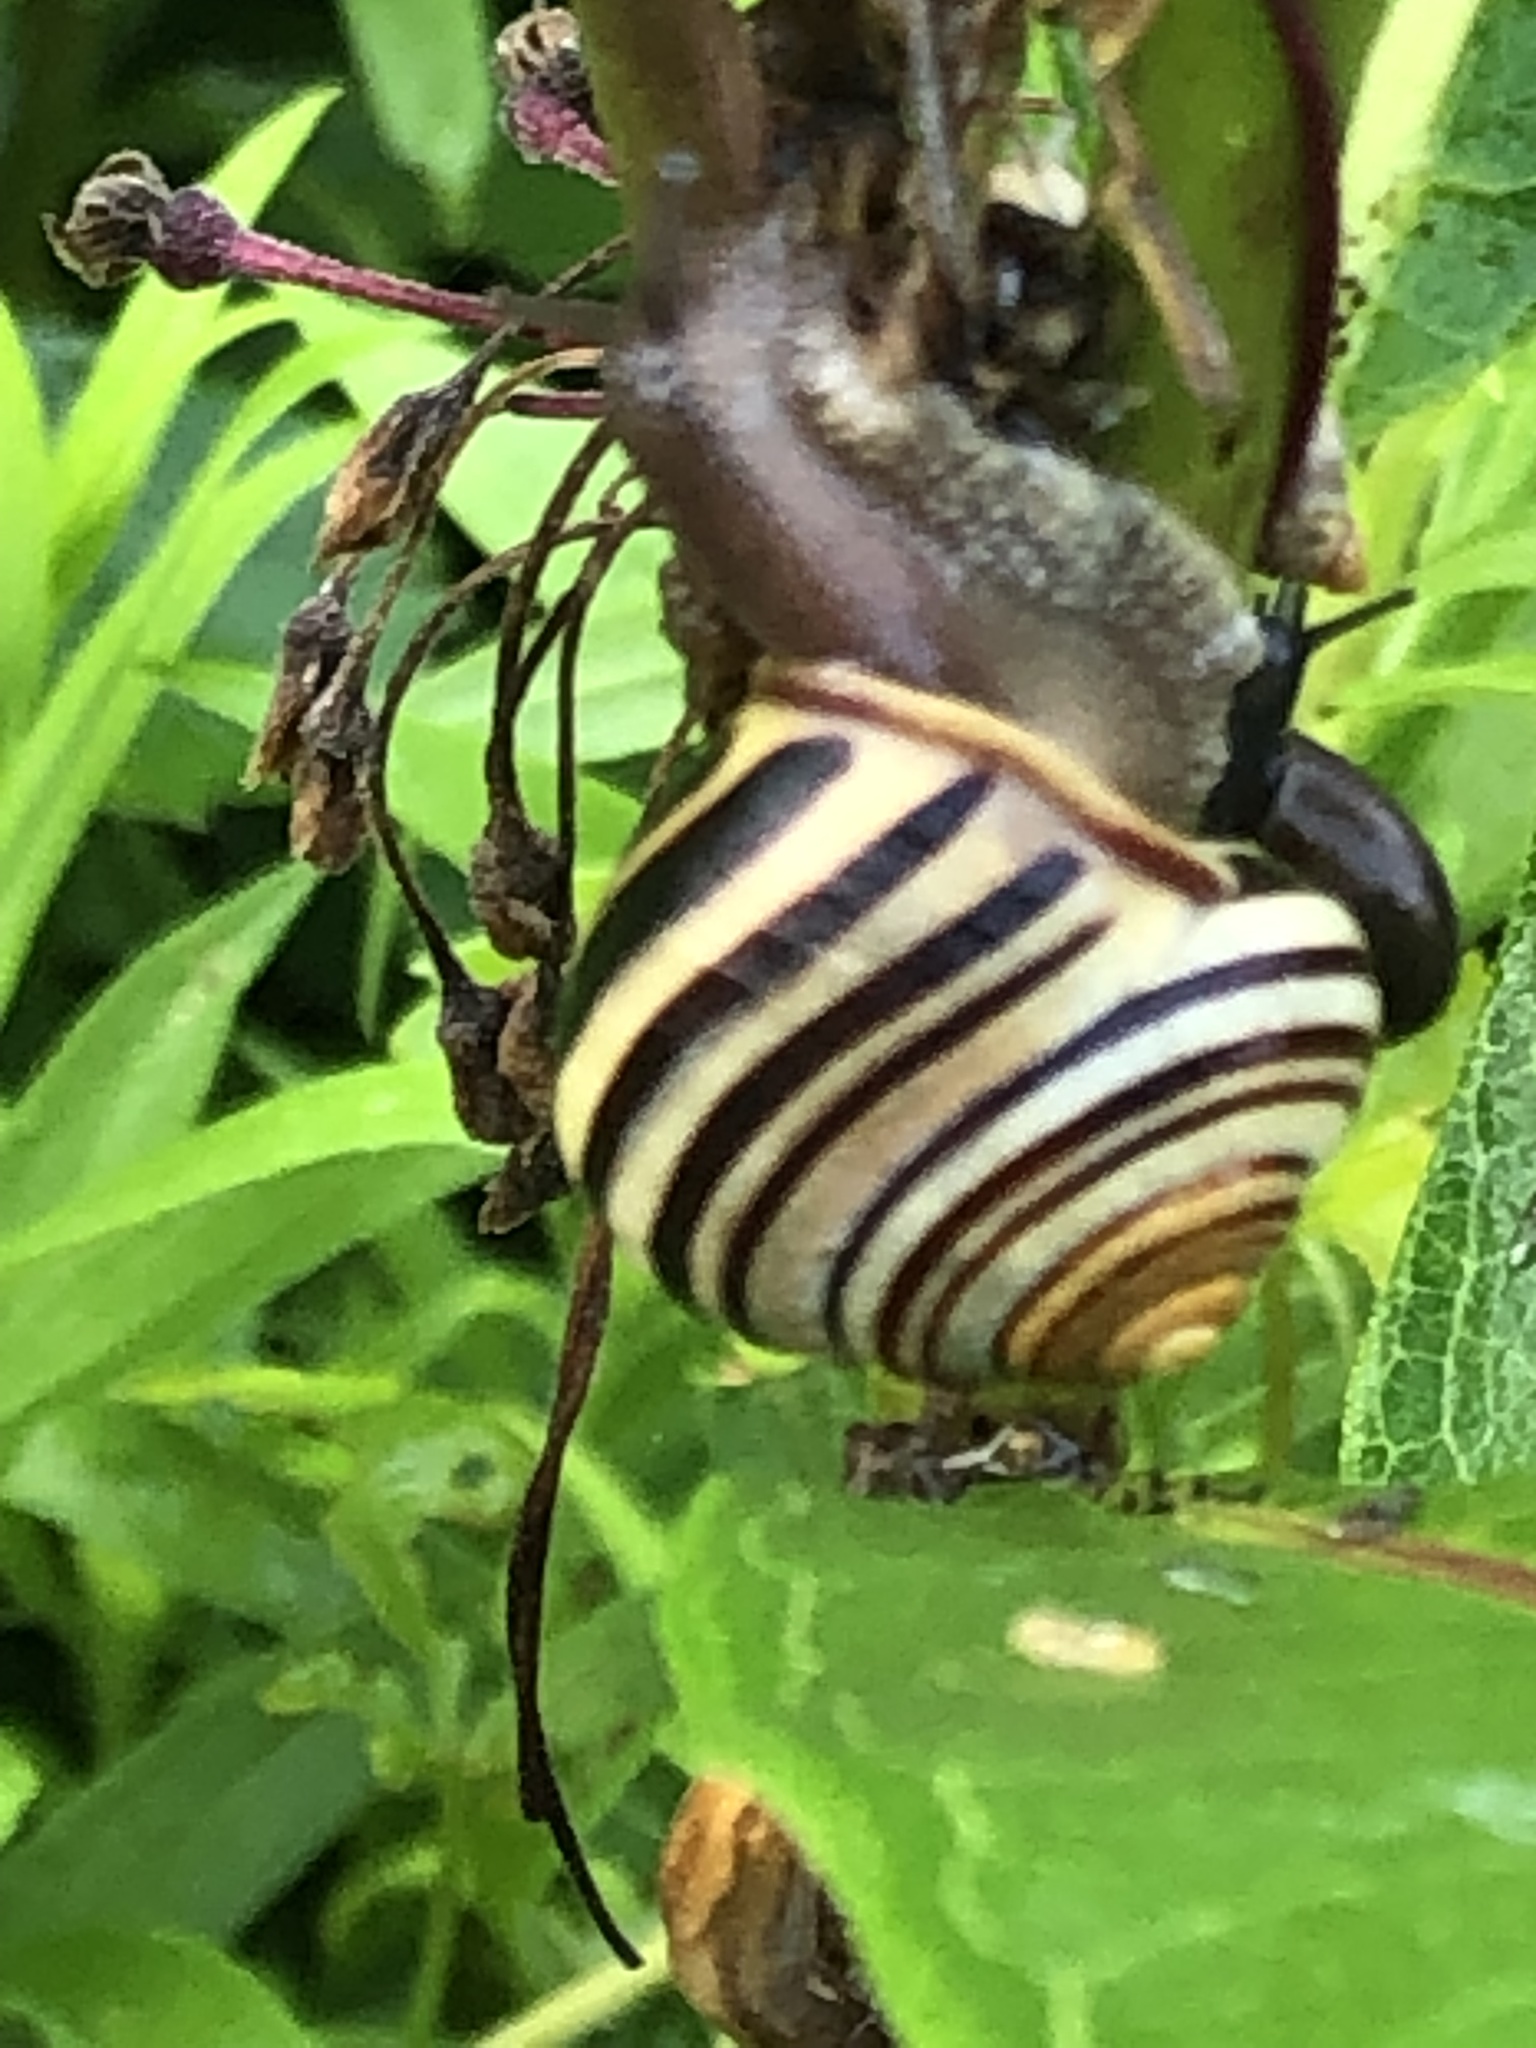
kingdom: Animalia
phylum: Mollusca
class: Gastropoda
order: Stylommatophora
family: Helicidae
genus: Cepaea
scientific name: Cepaea nemoralis
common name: Grovesnail
